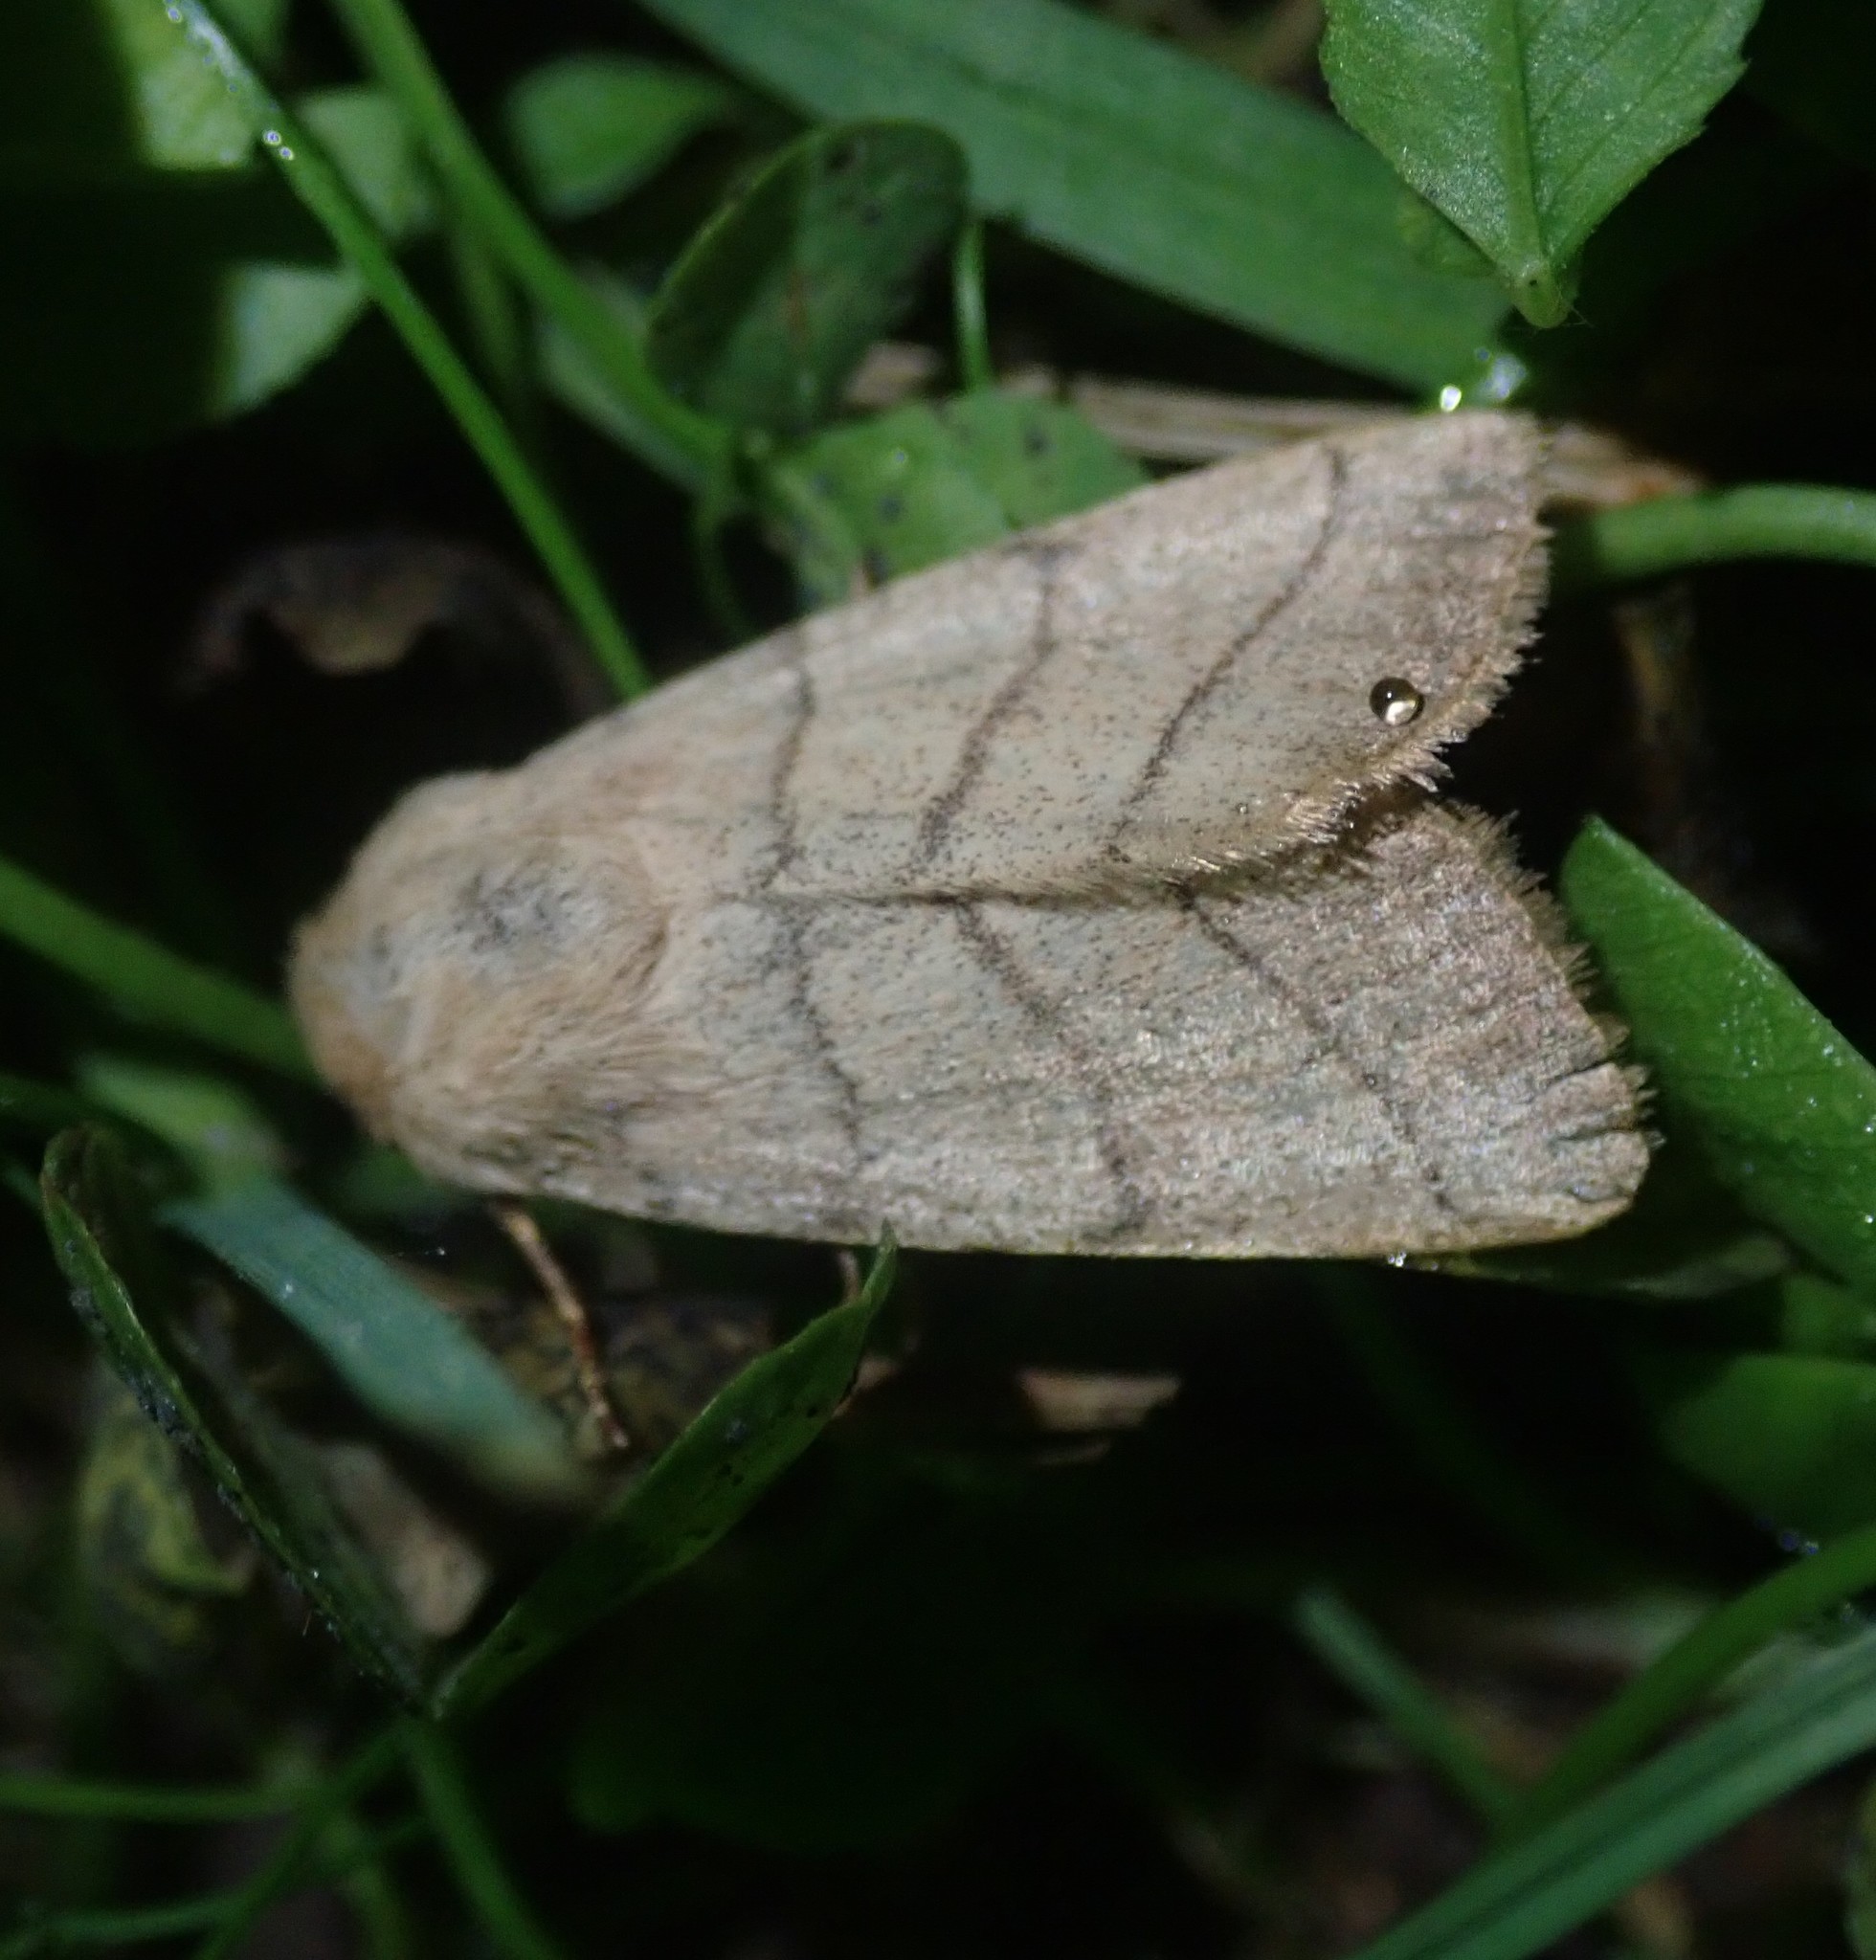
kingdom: Animalia
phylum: Arthropoda
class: Insecta
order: Lepidoptera
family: Noctuidae
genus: Charanyca
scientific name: Charanyca trigrammica
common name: Treble lines
